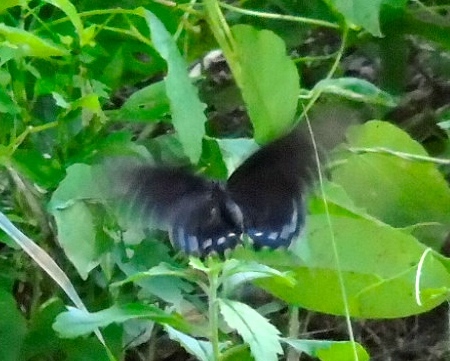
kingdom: Animalia
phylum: Arthropoda
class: Insecta
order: Lepidoptera
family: Papilionidae
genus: Battus
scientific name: Battus philenor
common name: Pipevine swallowtail
